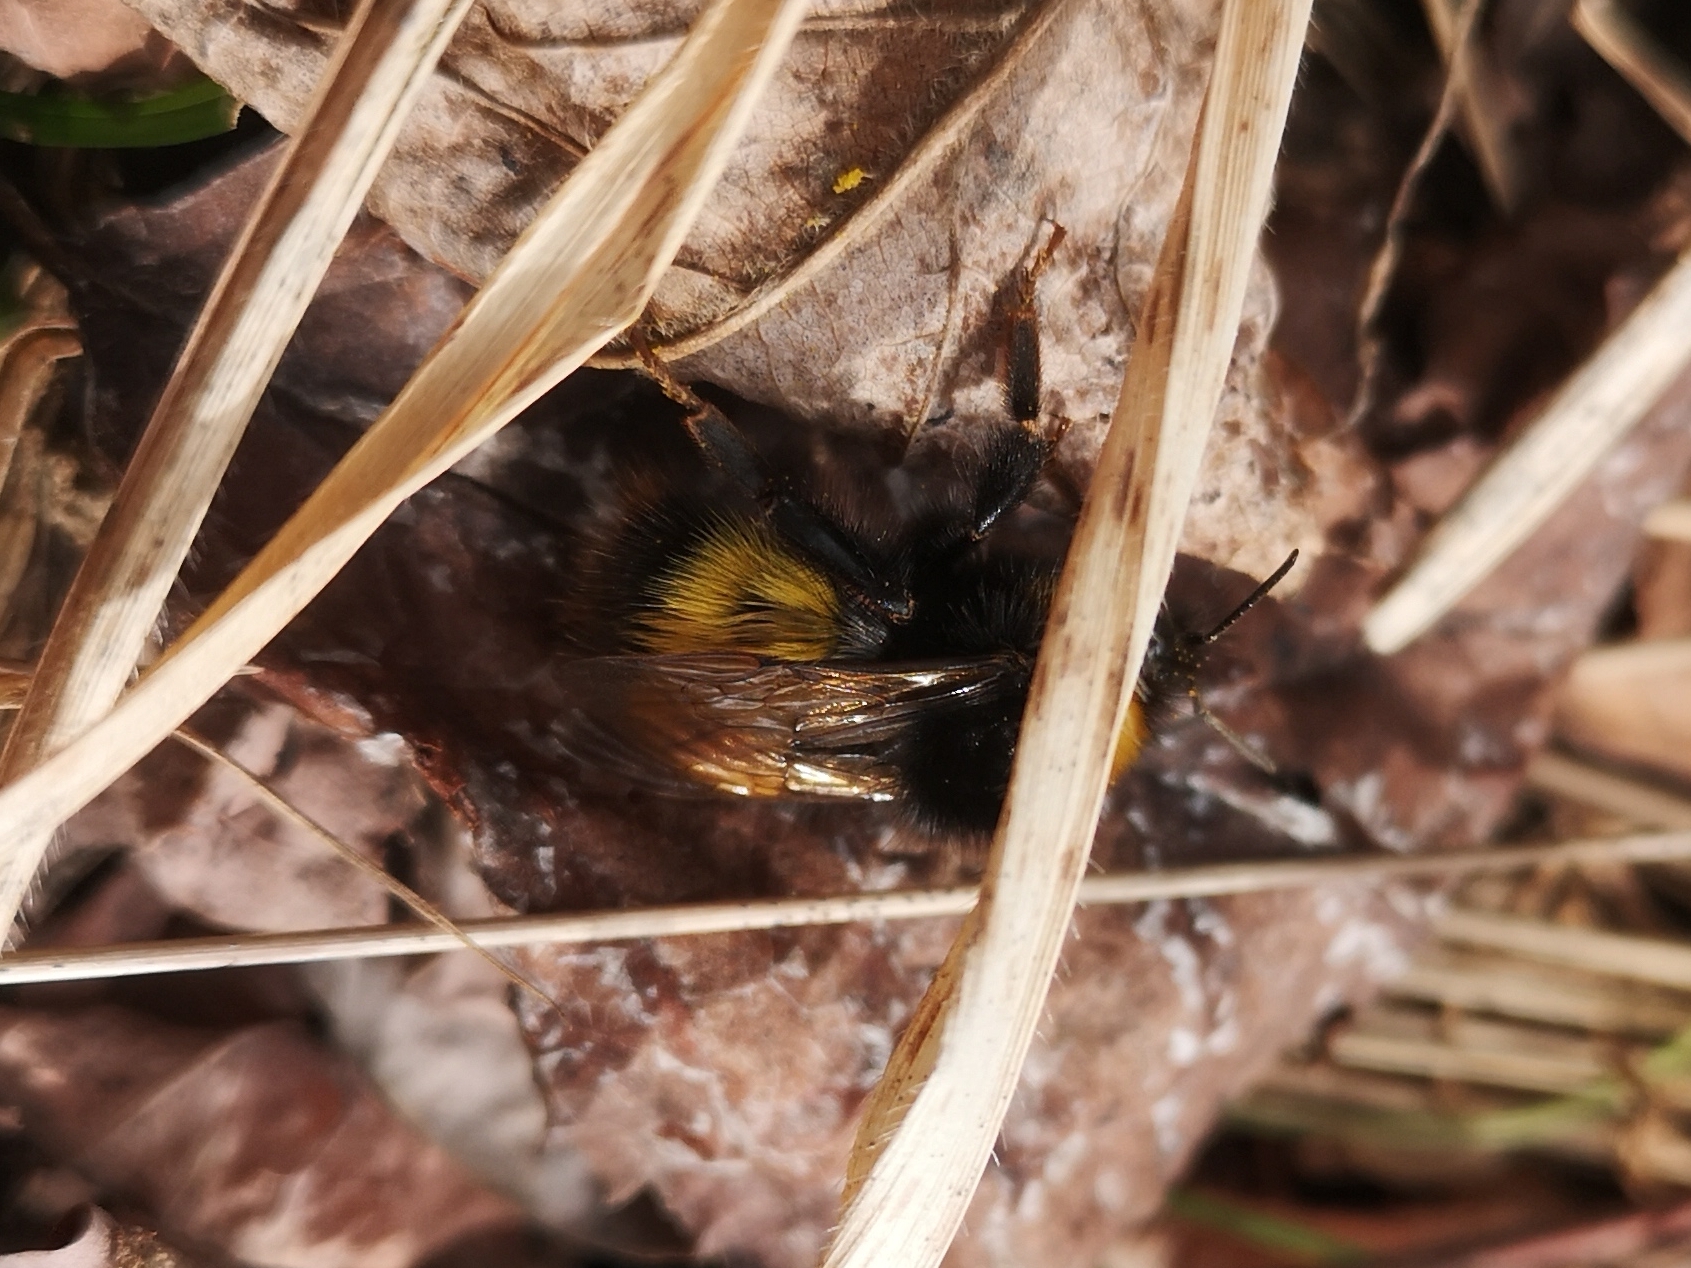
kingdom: Animalia
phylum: Arthropoda
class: Insecta
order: Hymenoptera
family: Apidae
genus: Bombus
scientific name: Bombus haematurus
